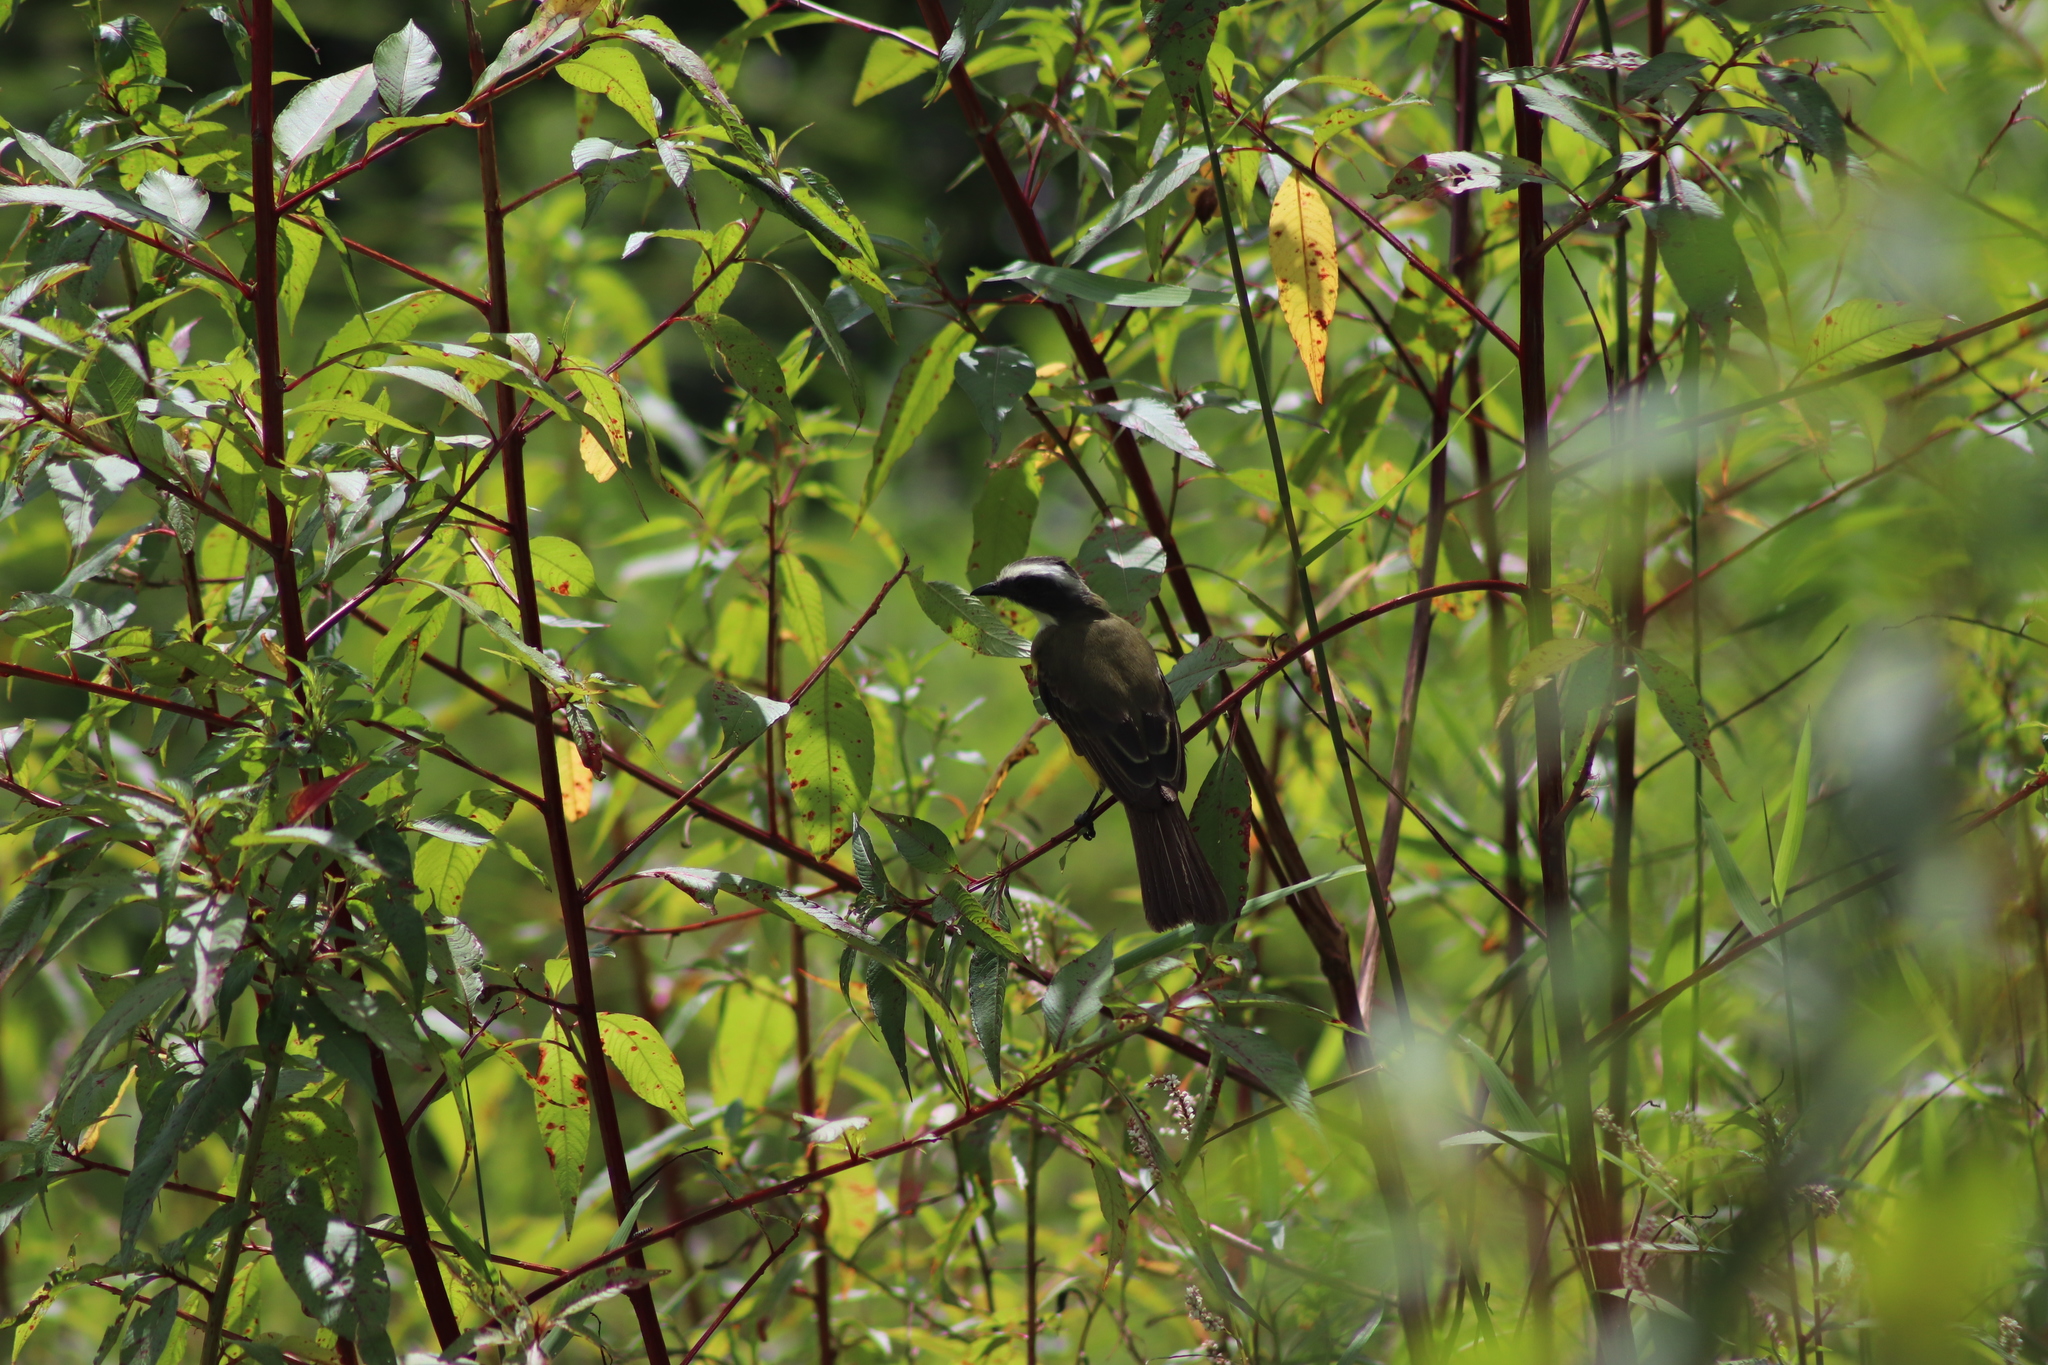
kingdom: Animalia
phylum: Chordata
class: Aves
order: Passeriformes
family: Tyrannidae
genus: Myiozetetes
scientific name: Myiozetetes similis
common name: Social flycatcher
